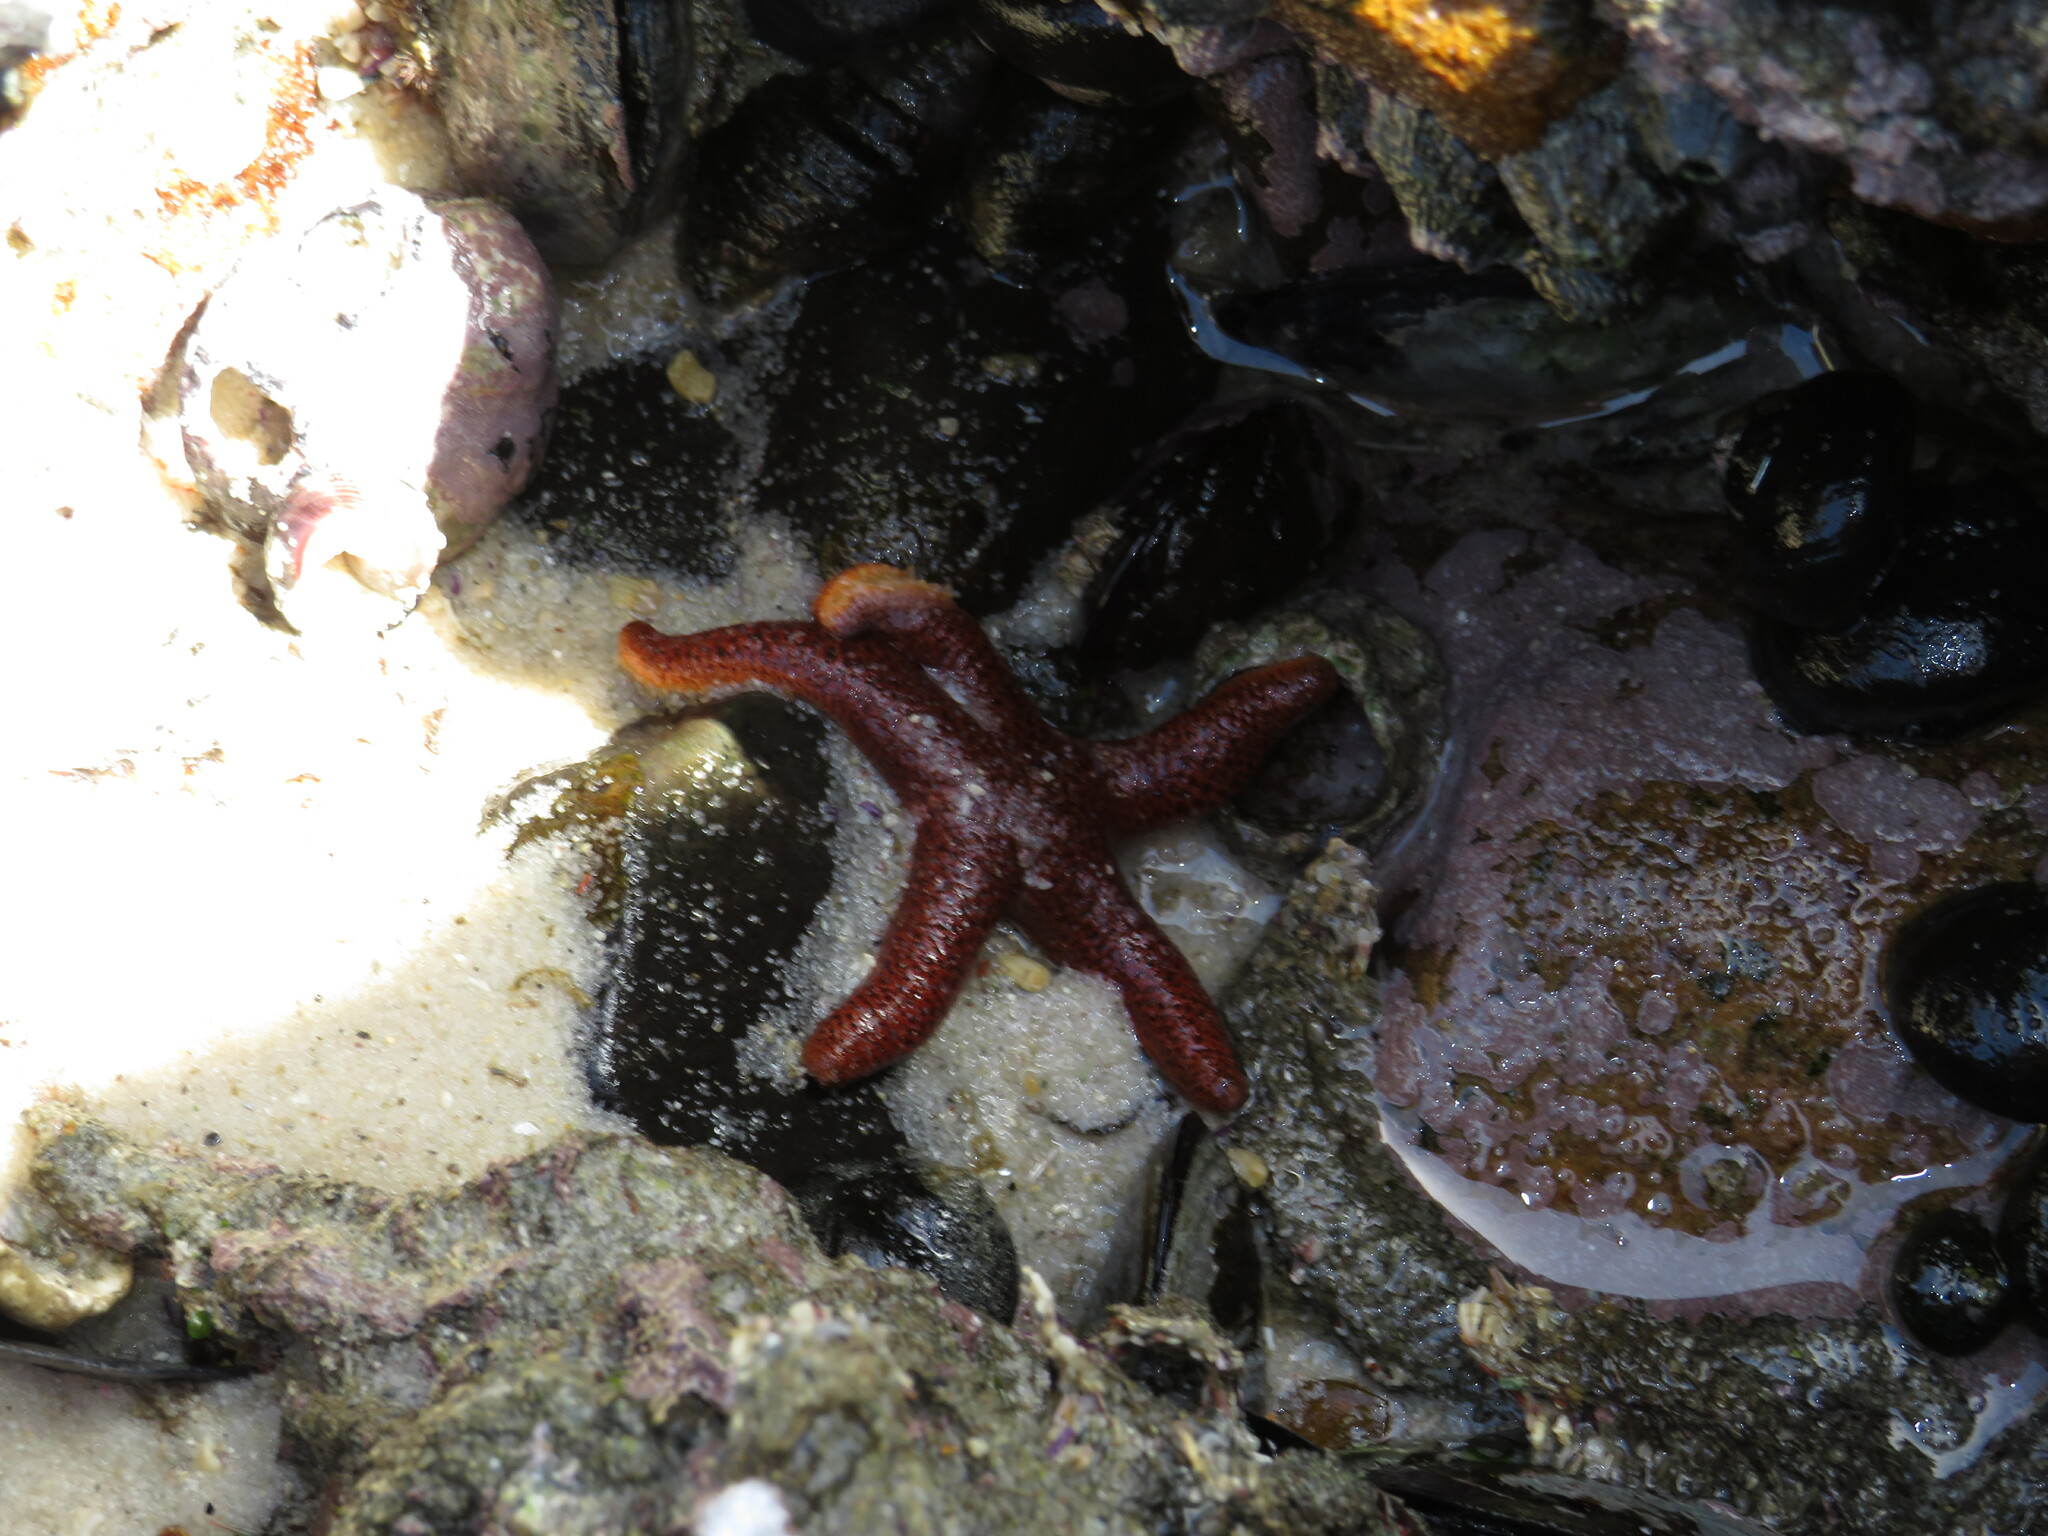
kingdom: Animalia
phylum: Echinodermata
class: Asteroidea
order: Spinulosida
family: Echinasteridae
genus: Henricia
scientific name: Henricia ornata
